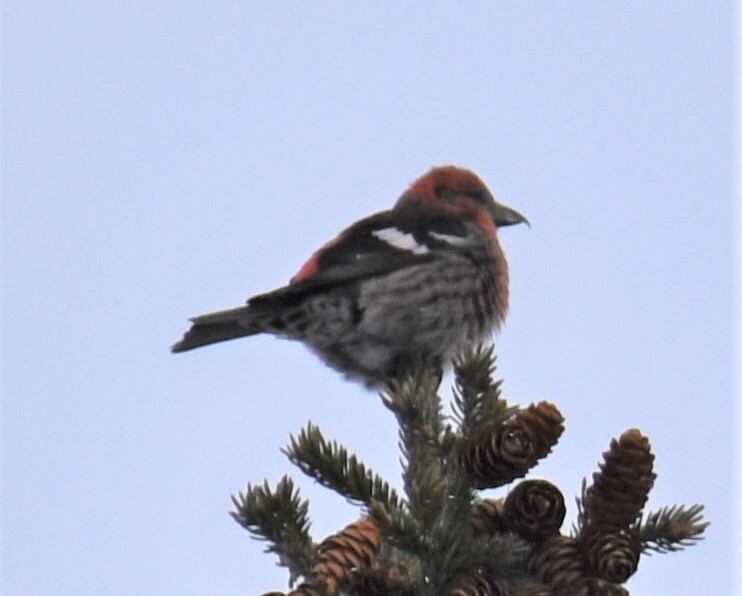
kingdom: Animalia
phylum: Chordata
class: Aves
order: Passeriformes
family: Fringillidae
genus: Loxia
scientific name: Loxia leucoptera
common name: Two-barred crossbill
